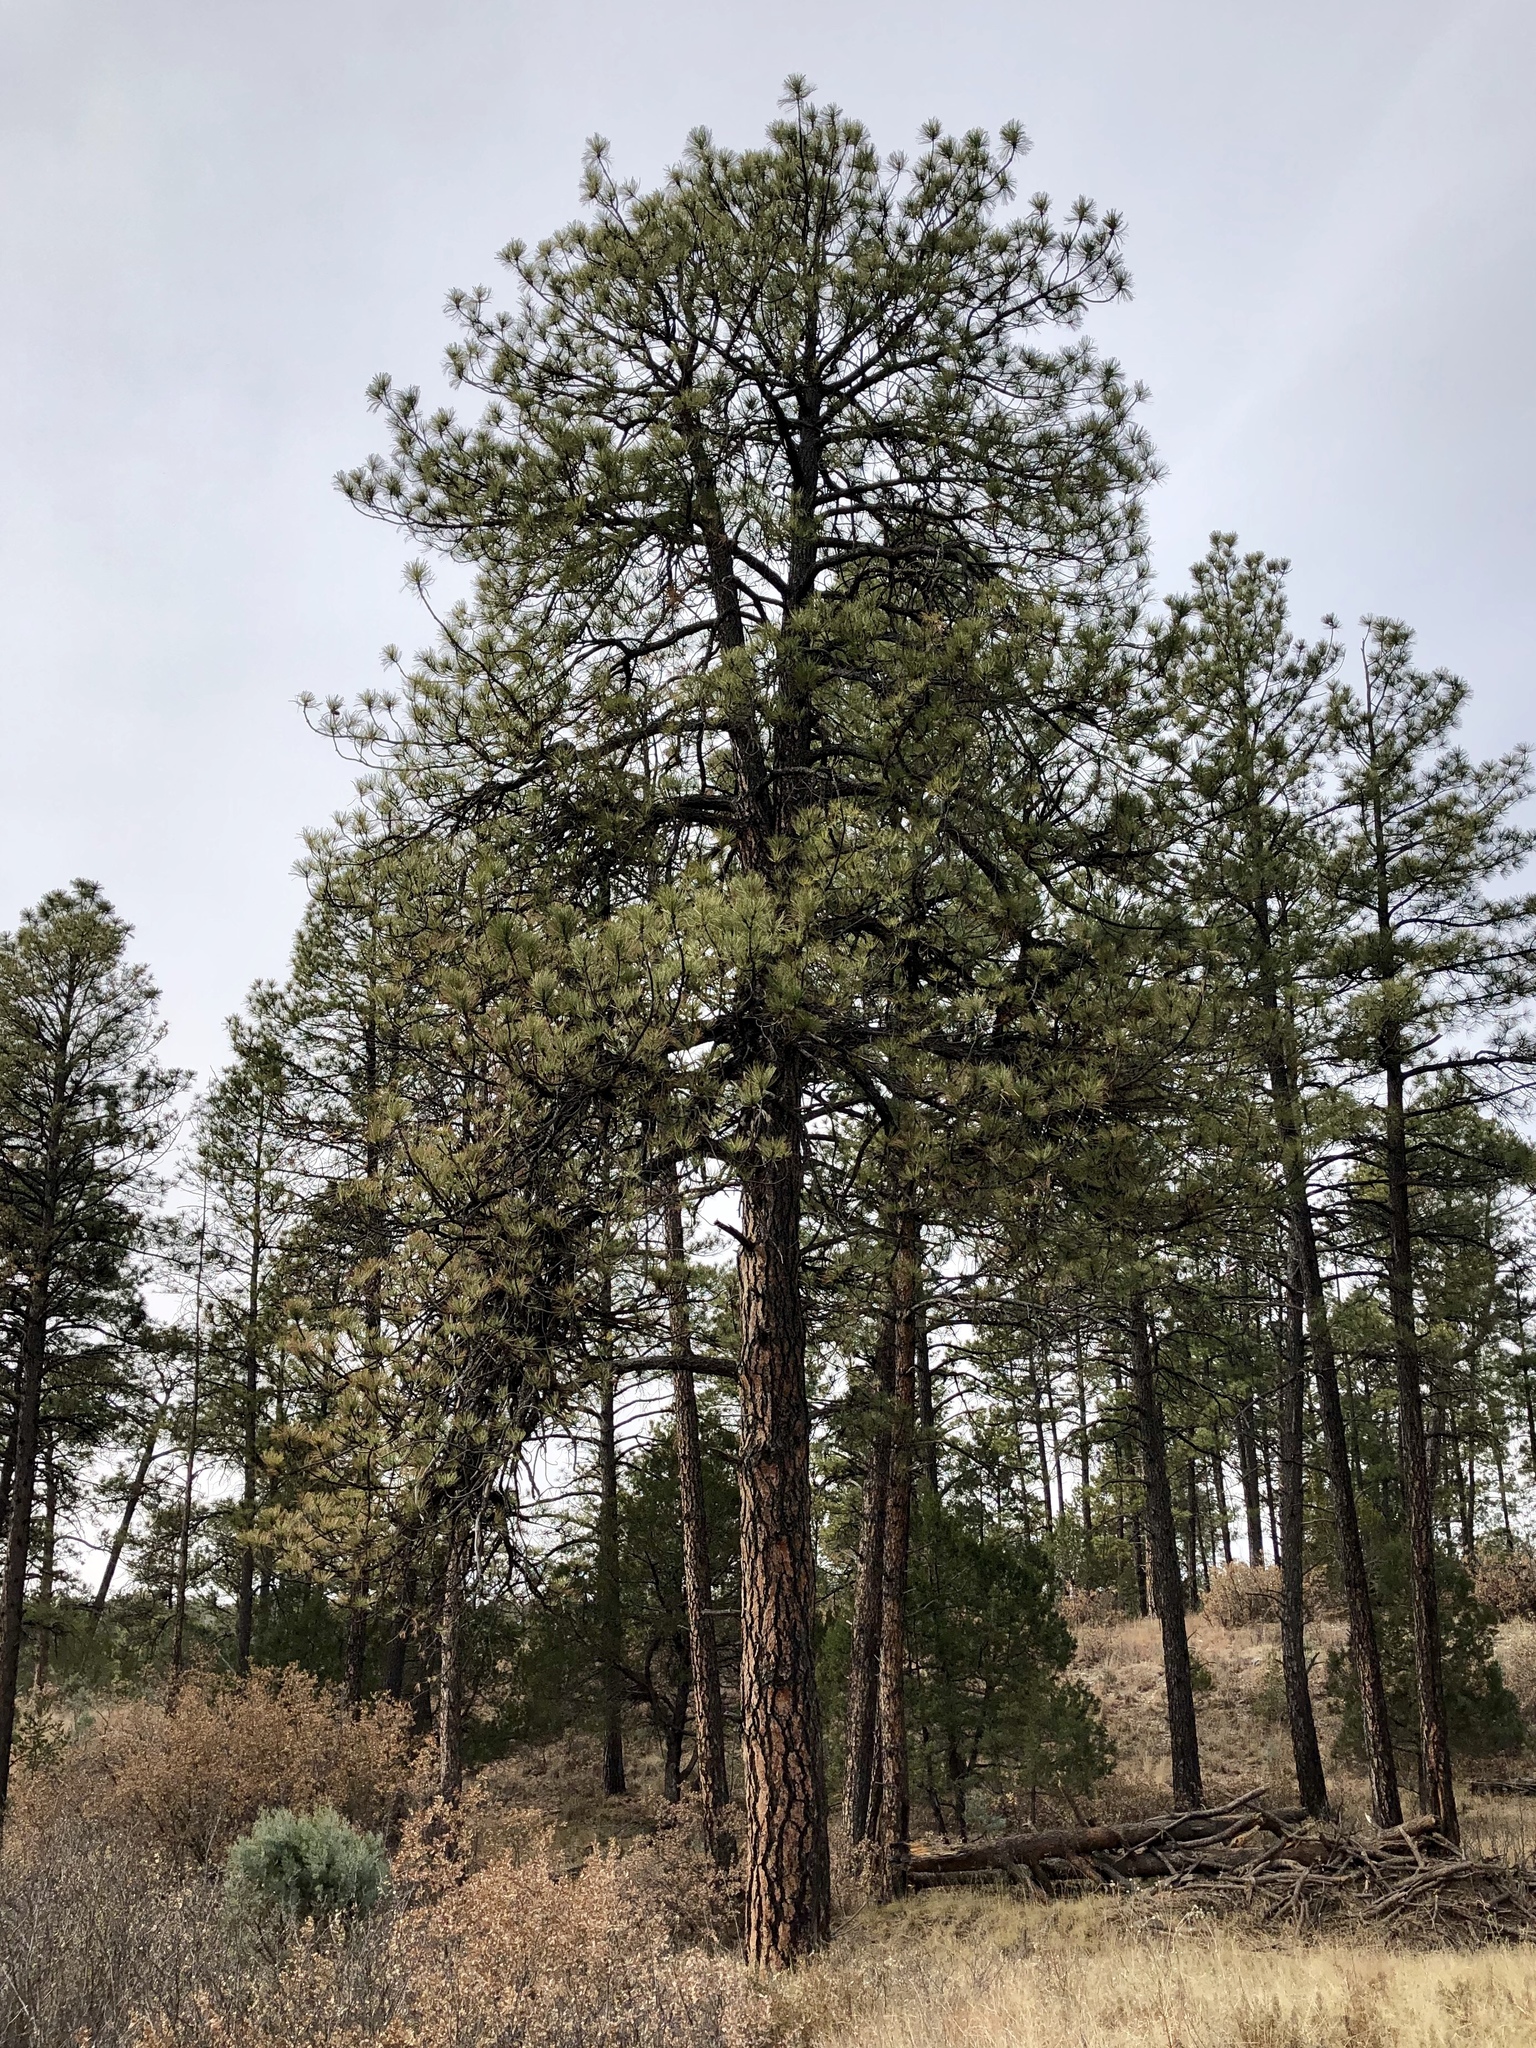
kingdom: Plantae
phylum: Tracheophyta
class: Pinopsida
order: Pinales
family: Pinaceae
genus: Pinus
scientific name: Pinus ponderosa
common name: Western yellow-pine
